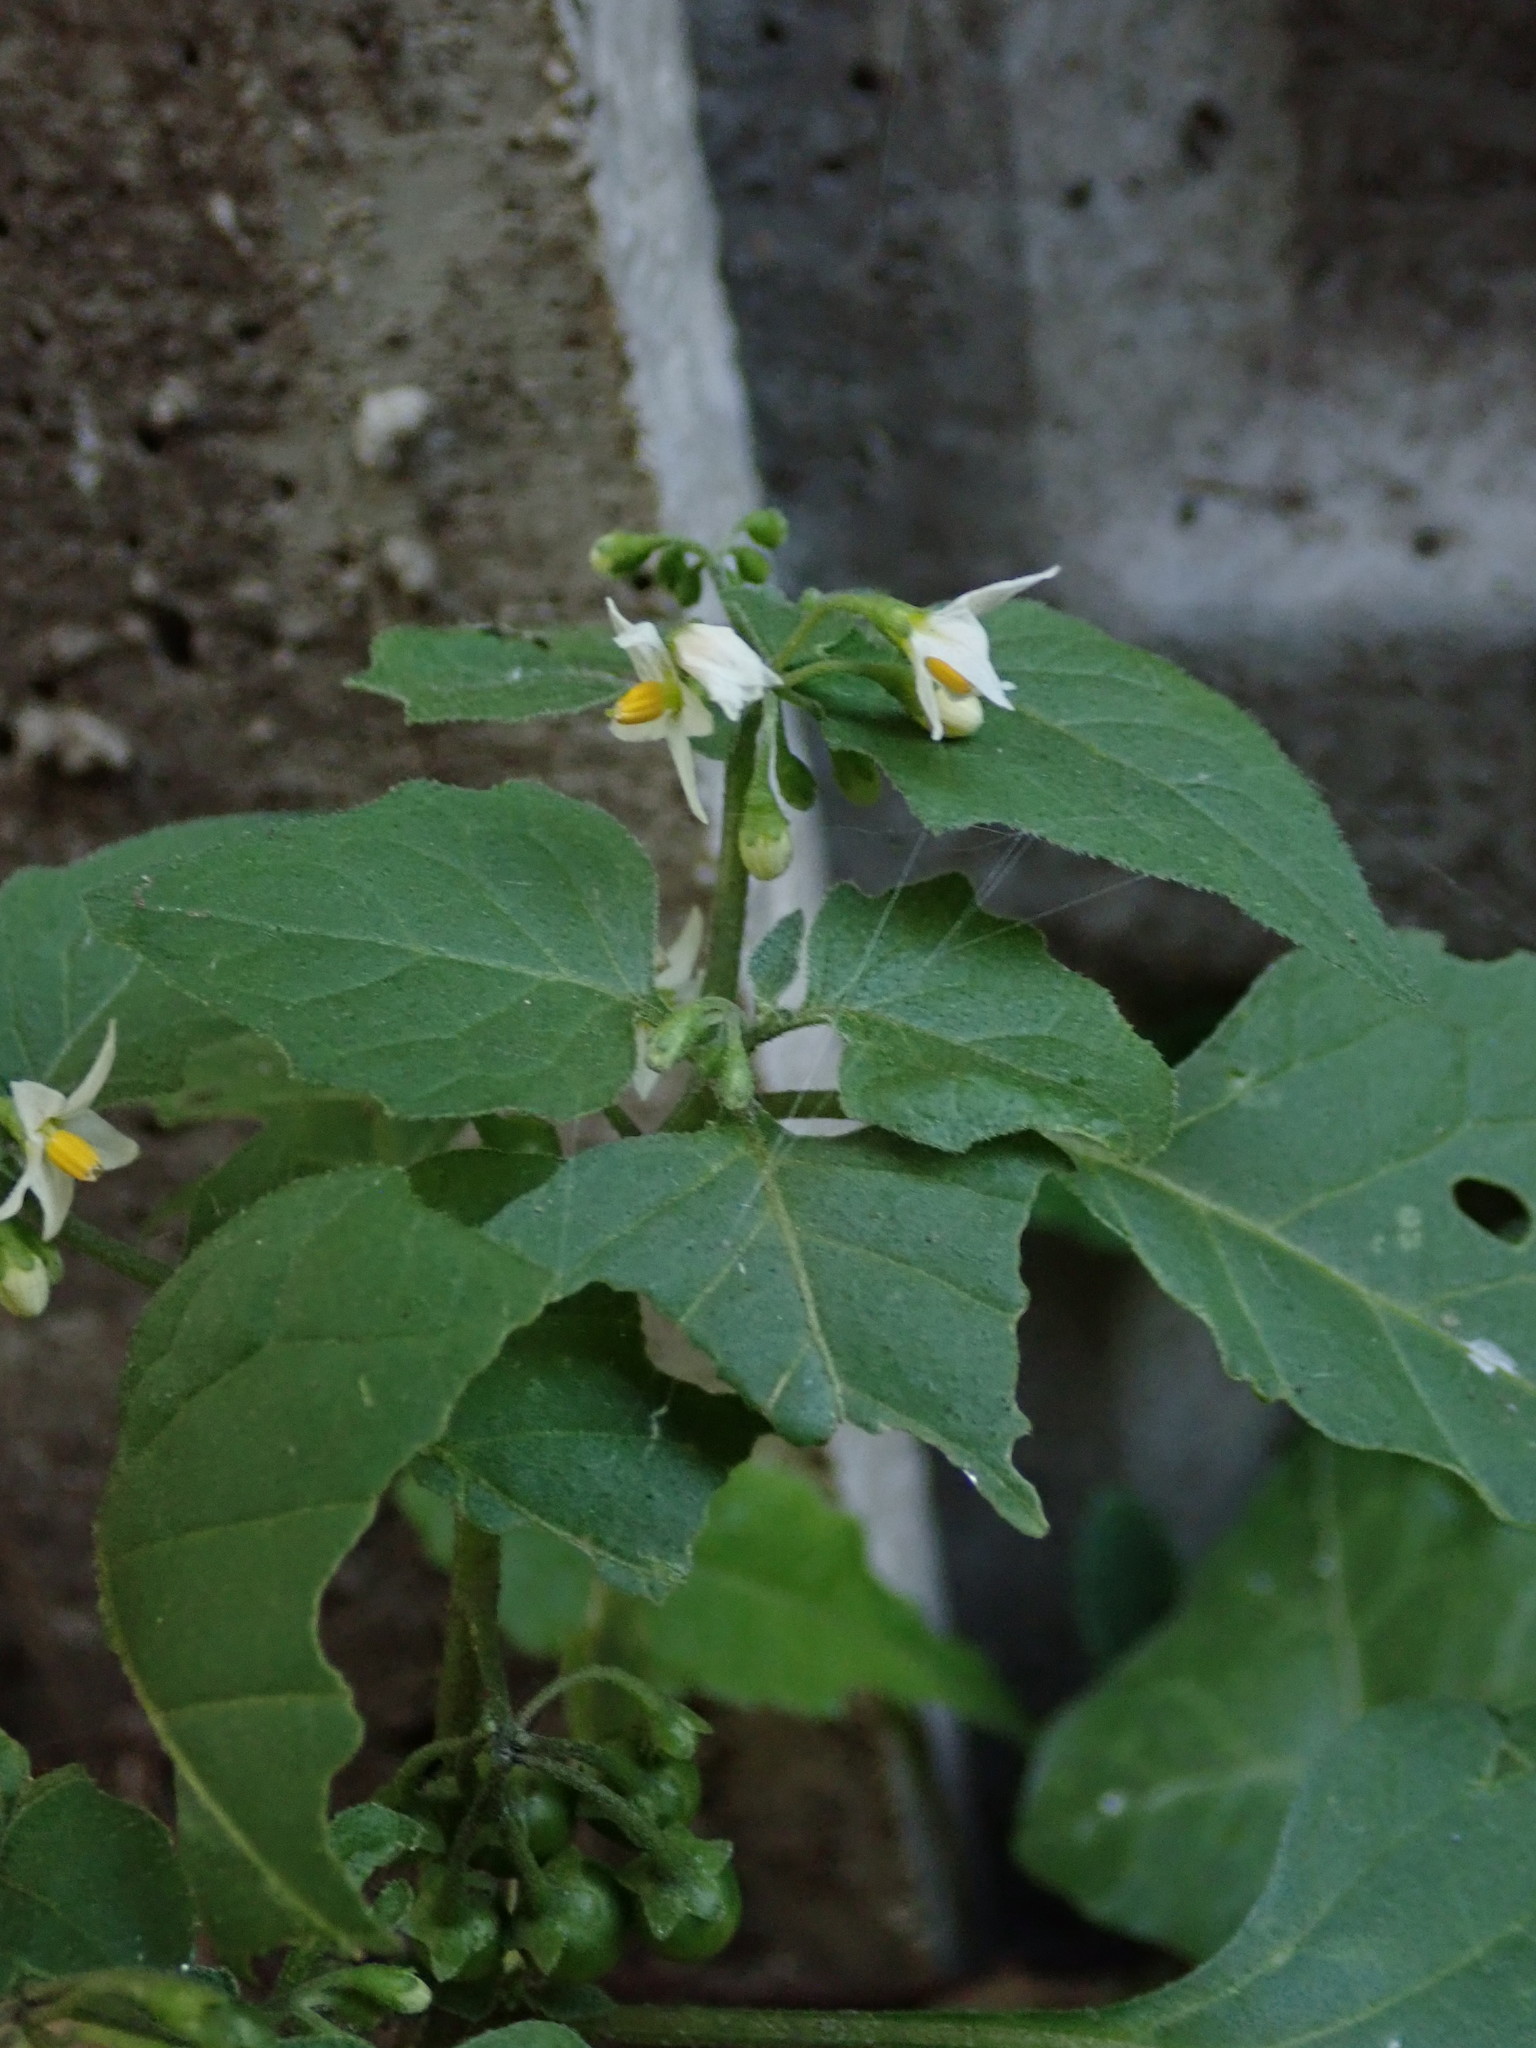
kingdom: Plantae
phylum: Tracheophyta
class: Magnoliopsida
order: Solanales
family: Solanaceae
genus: Solanum
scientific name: Solanum nigrum
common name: Black nightshade
